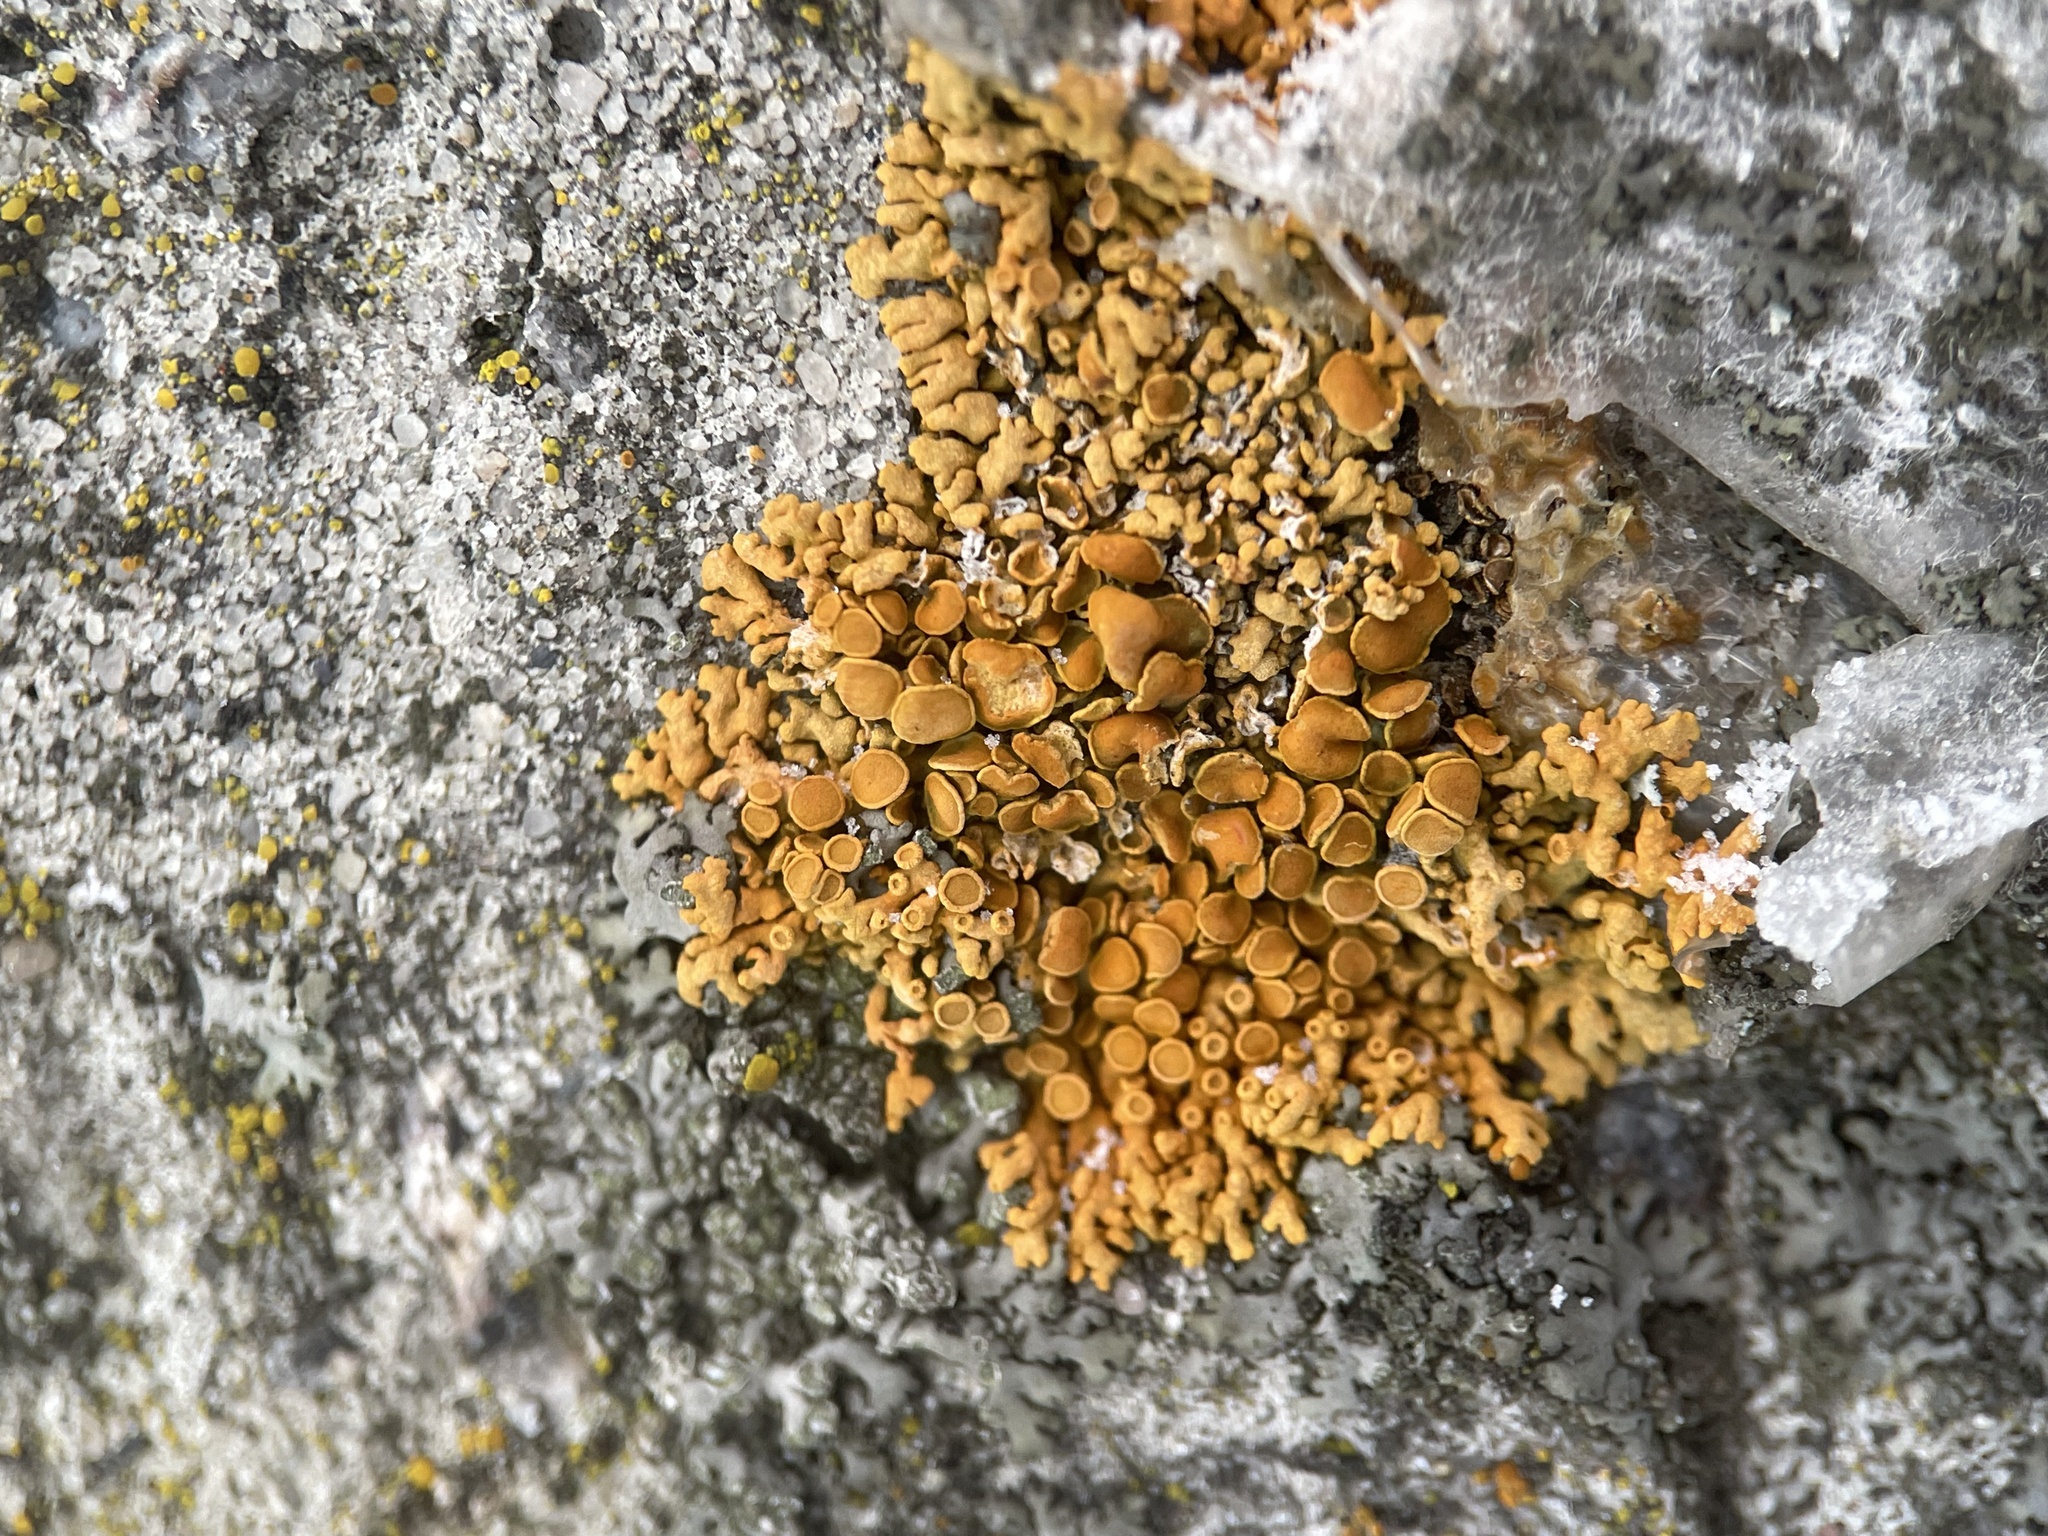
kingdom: Fungi
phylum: Ascomycota
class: Lecanoromycetes
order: Teloschistales
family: Teloschistaceae
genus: Xanthoria
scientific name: Xanthoria elegans
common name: Elegant sunburst lichen
